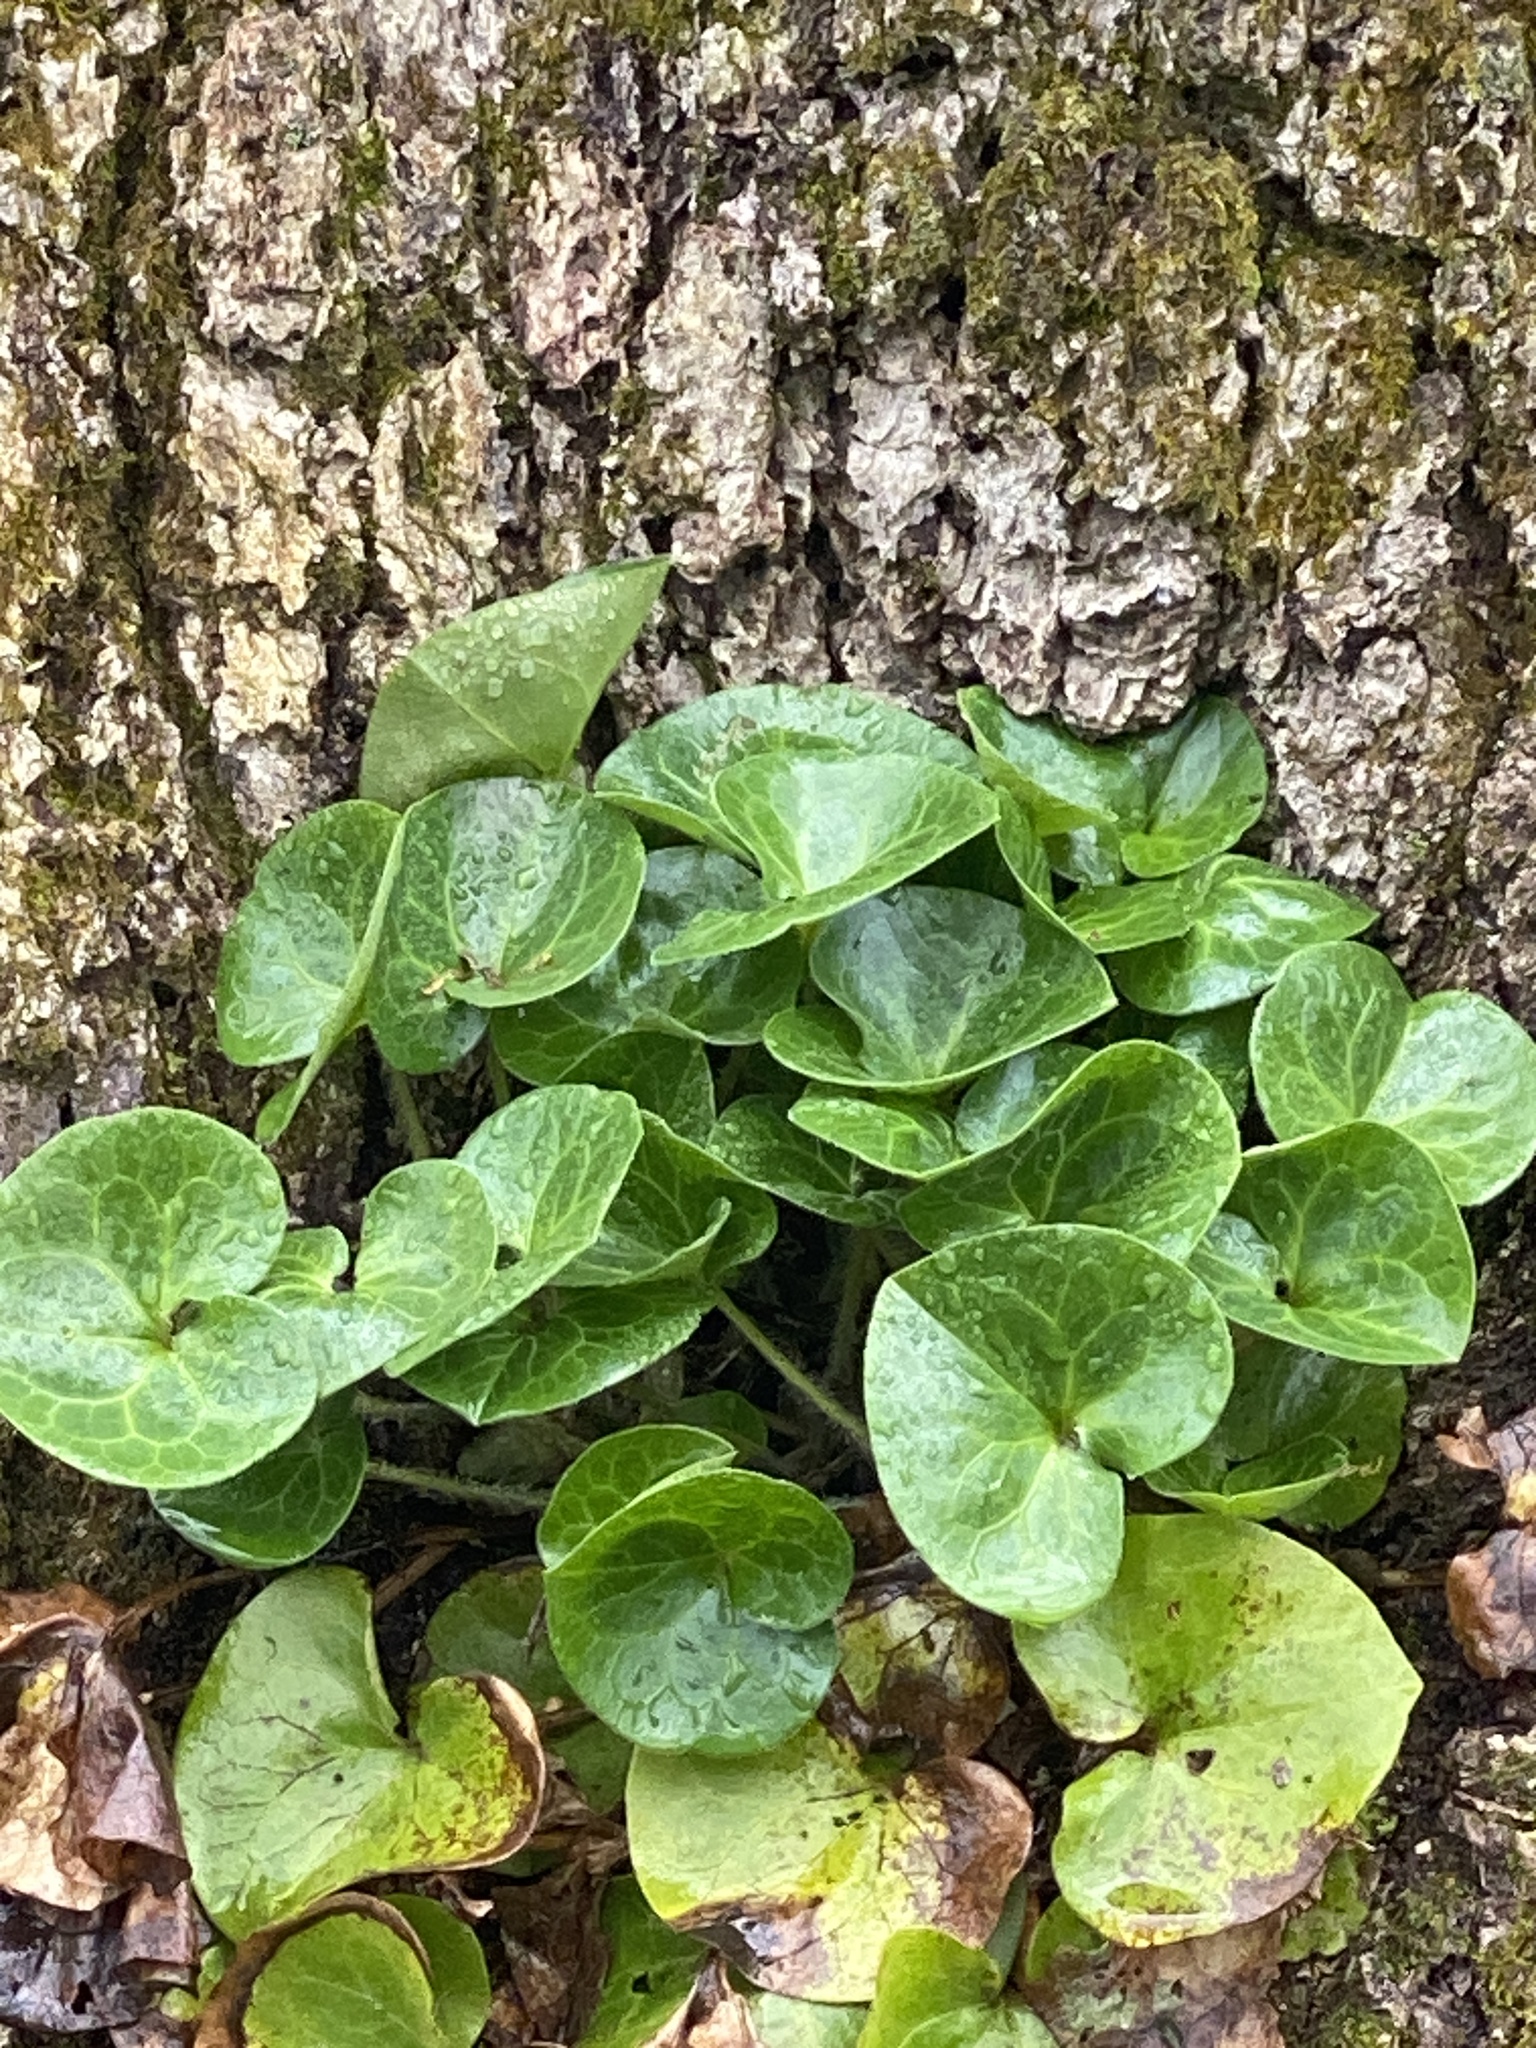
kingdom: Plantae
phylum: Tracheophyta
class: Magnoliopsida
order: Piperales
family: Aristolochiaceae
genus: Asarum
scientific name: Asarum europaeum
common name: Asarabacca
